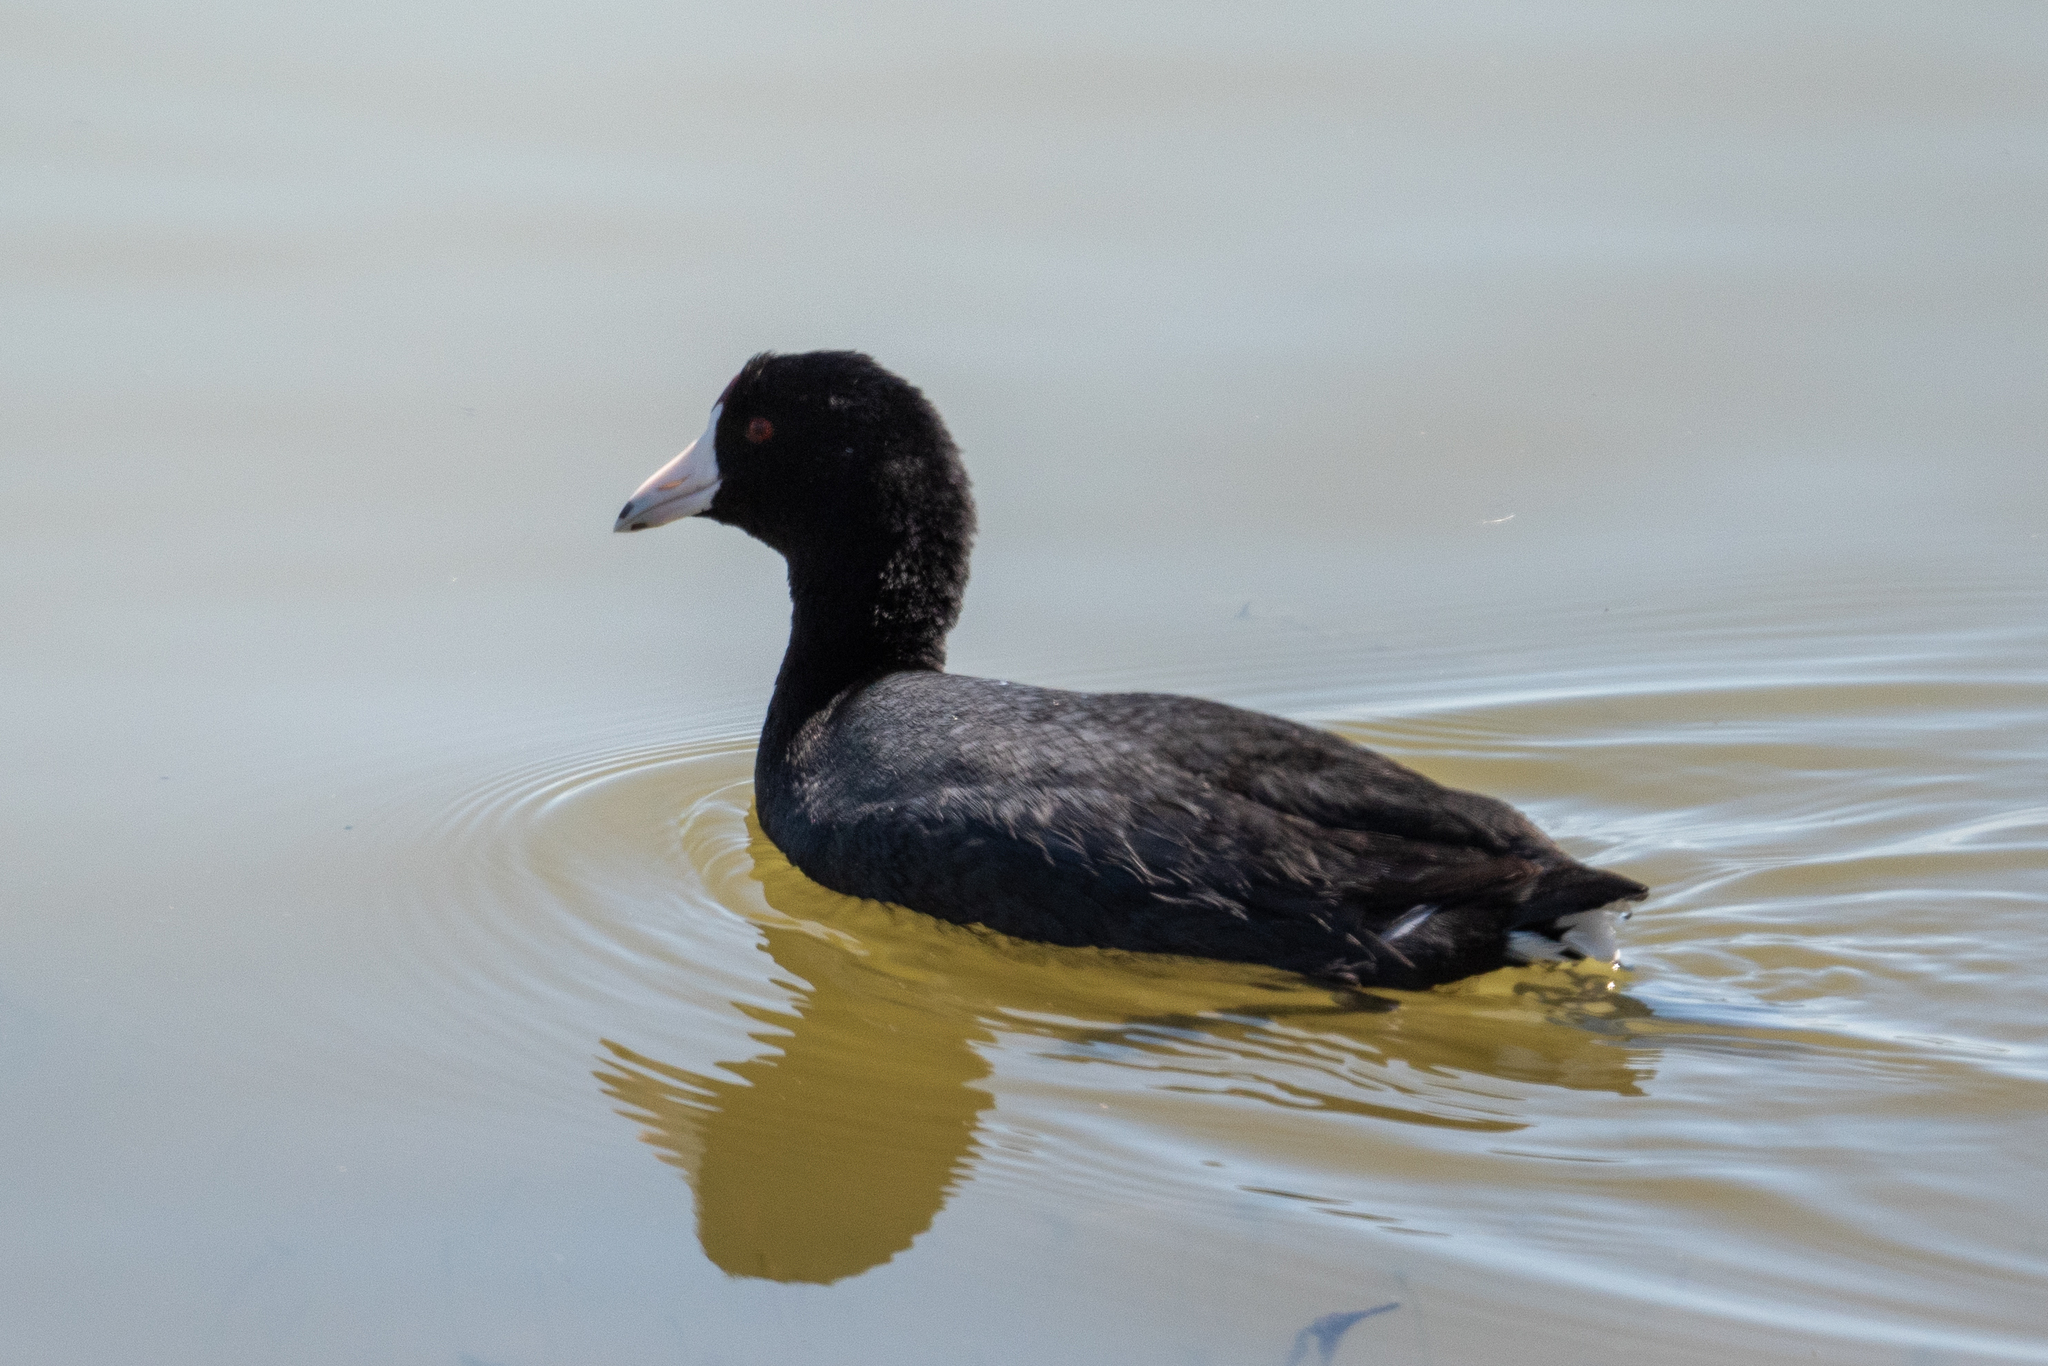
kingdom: Animalia
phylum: Chordata
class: Aves
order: Gruiformes
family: Rallidae
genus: Fulica
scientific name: Fulica americana
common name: American coot
